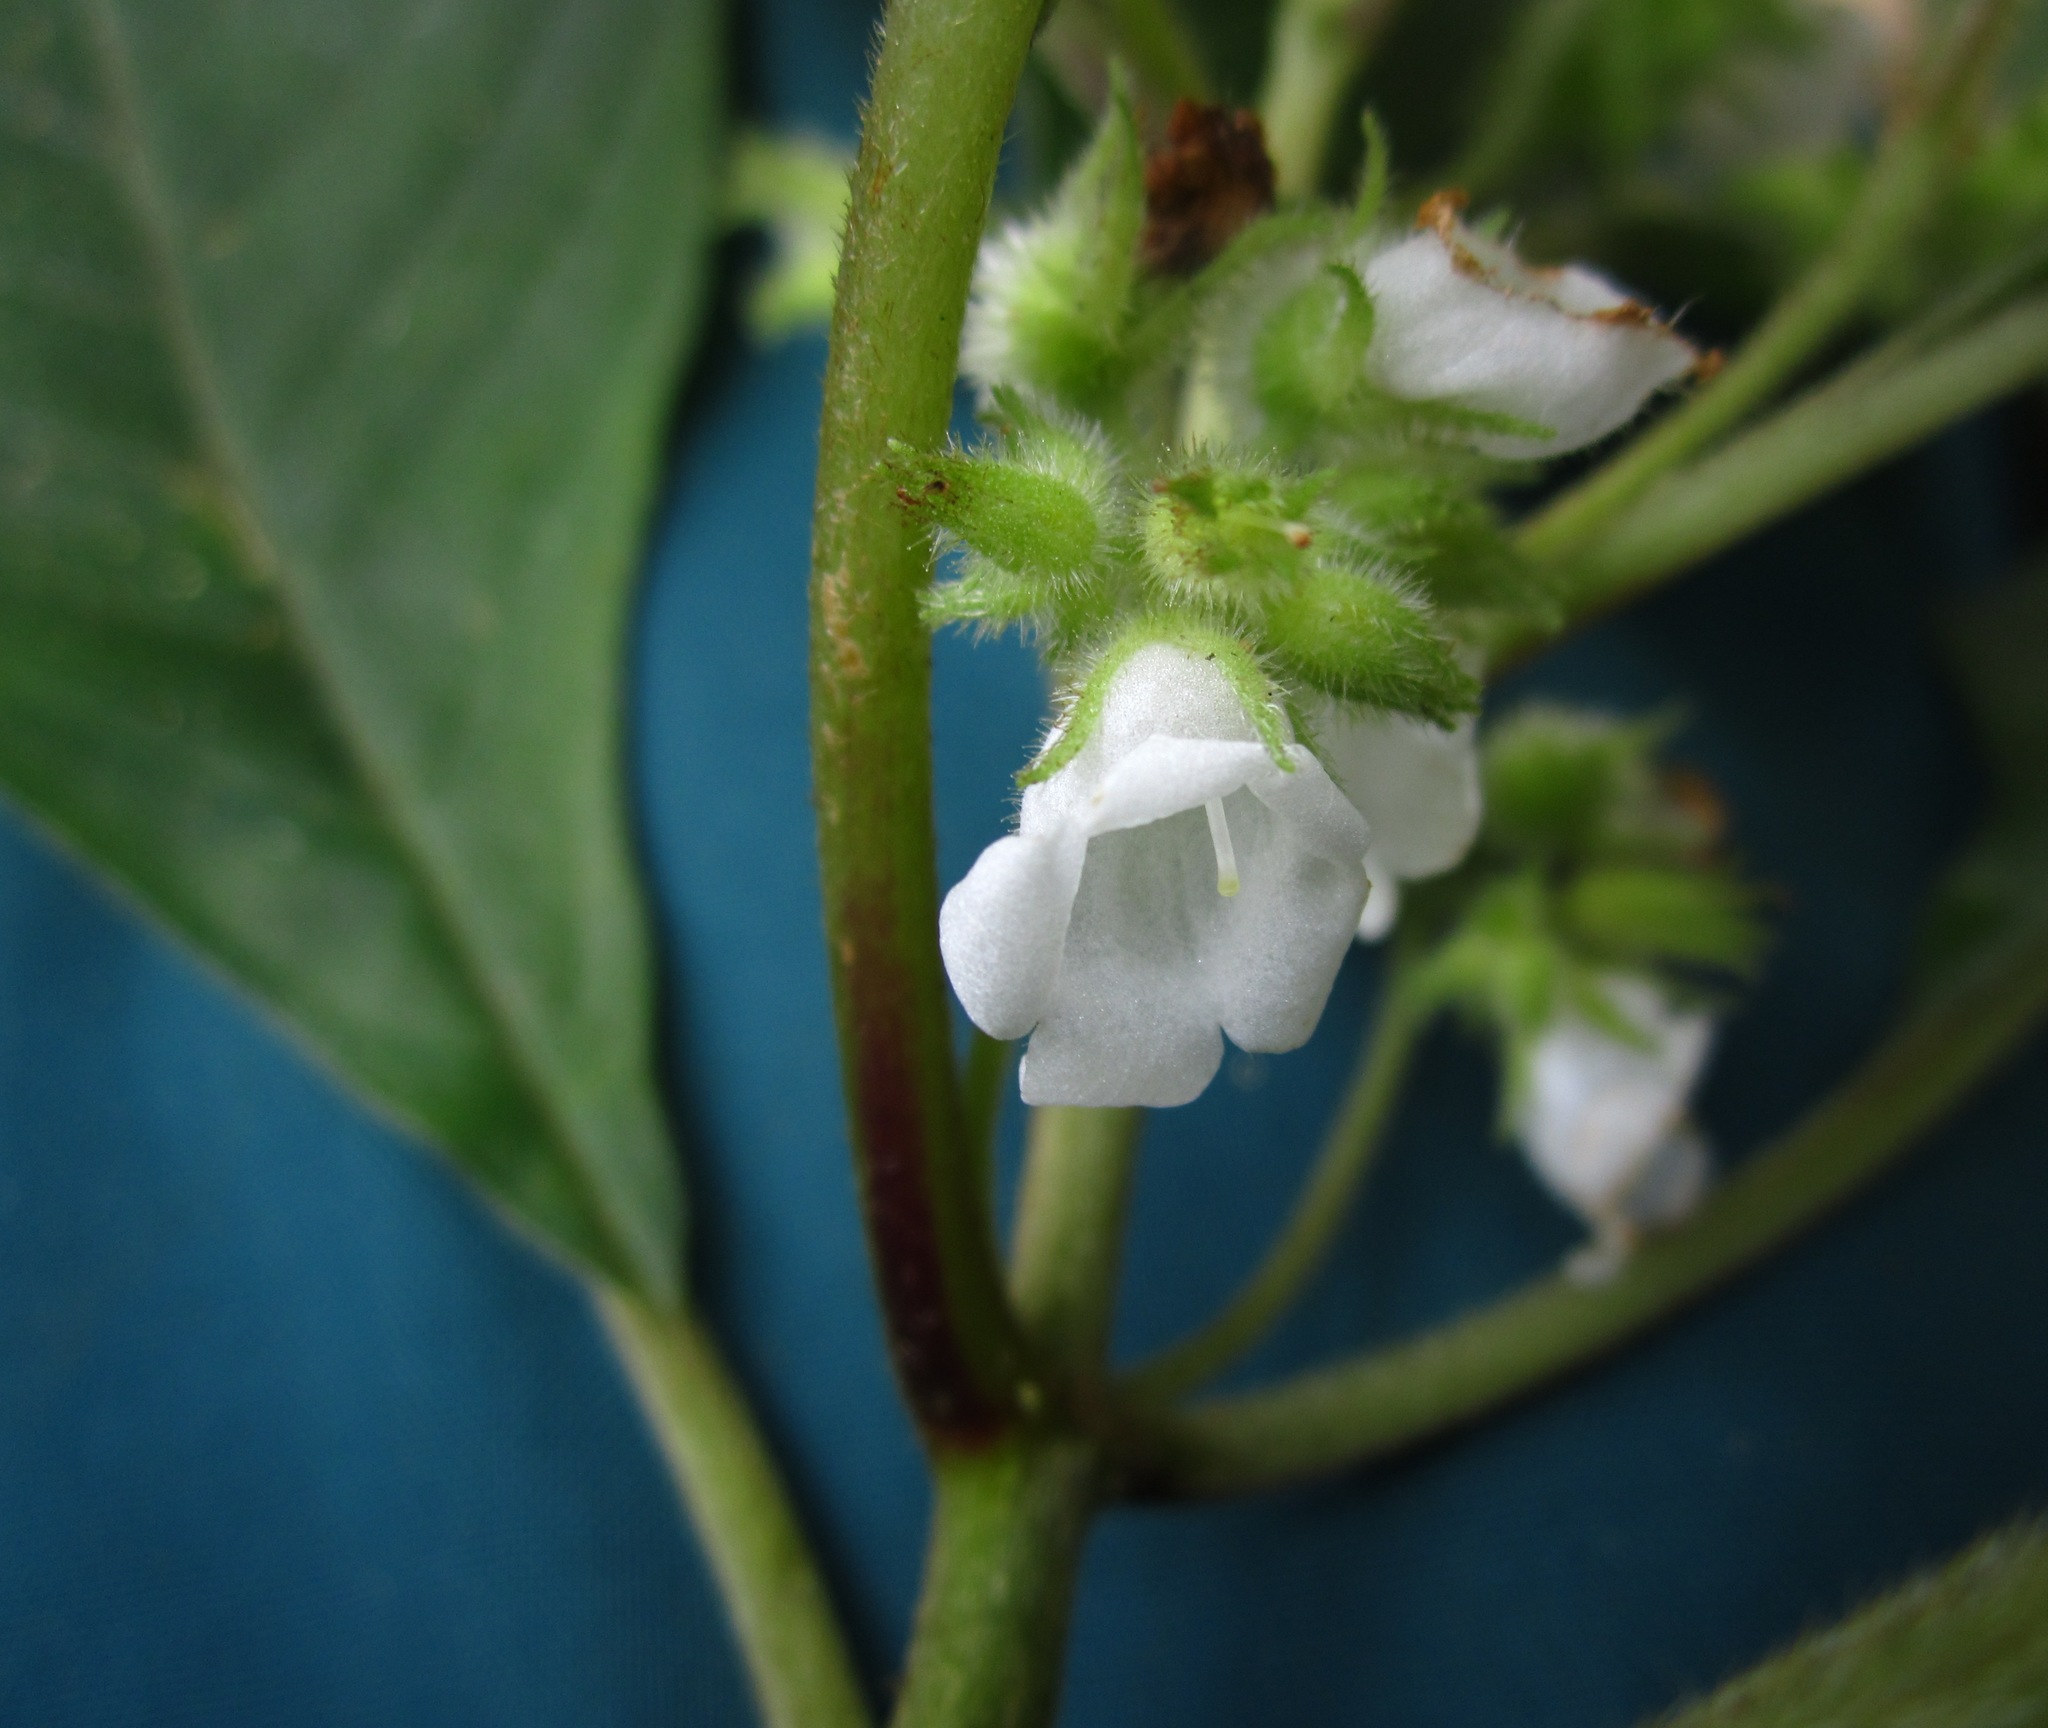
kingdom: Plantae
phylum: Tracheophyta
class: Magnoliopsida
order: Lamiales
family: Gesneriaceae
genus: Streptocarpus
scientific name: Streptocarpus campanulatus
